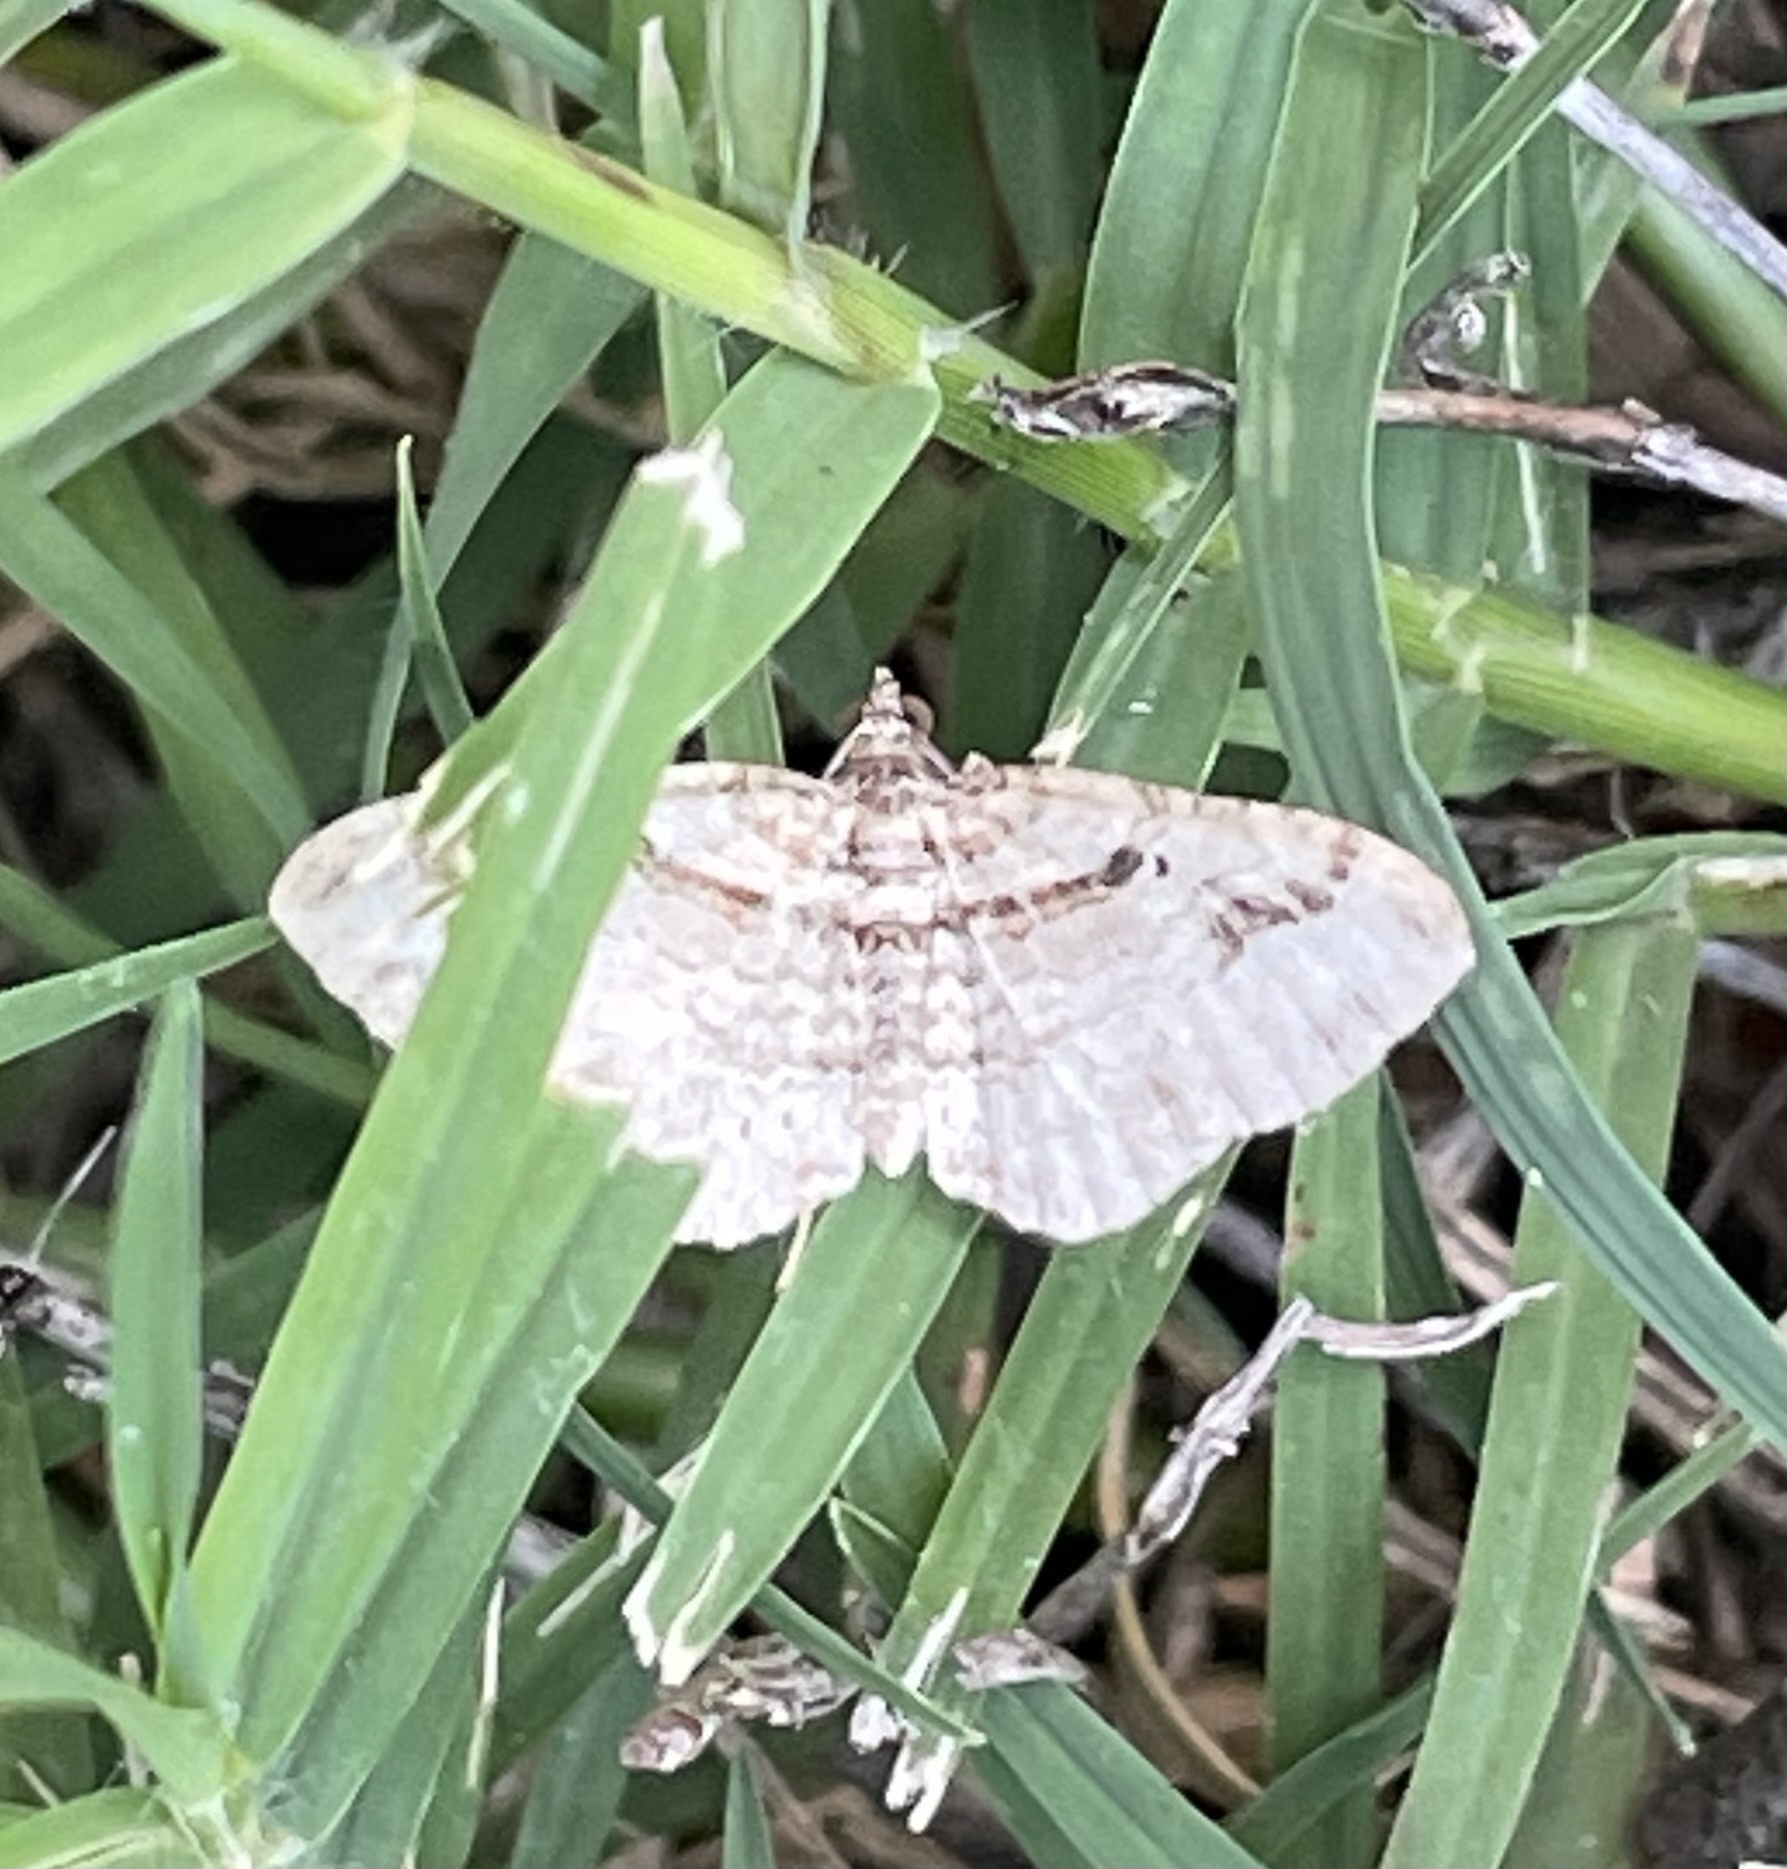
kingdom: Animalia
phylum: Arthropoda
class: Insecta
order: Lepidoptera
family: Geometridae
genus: Costaconvexa
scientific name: Costaconvexa centrostrigaria
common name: Bent-line carpet
